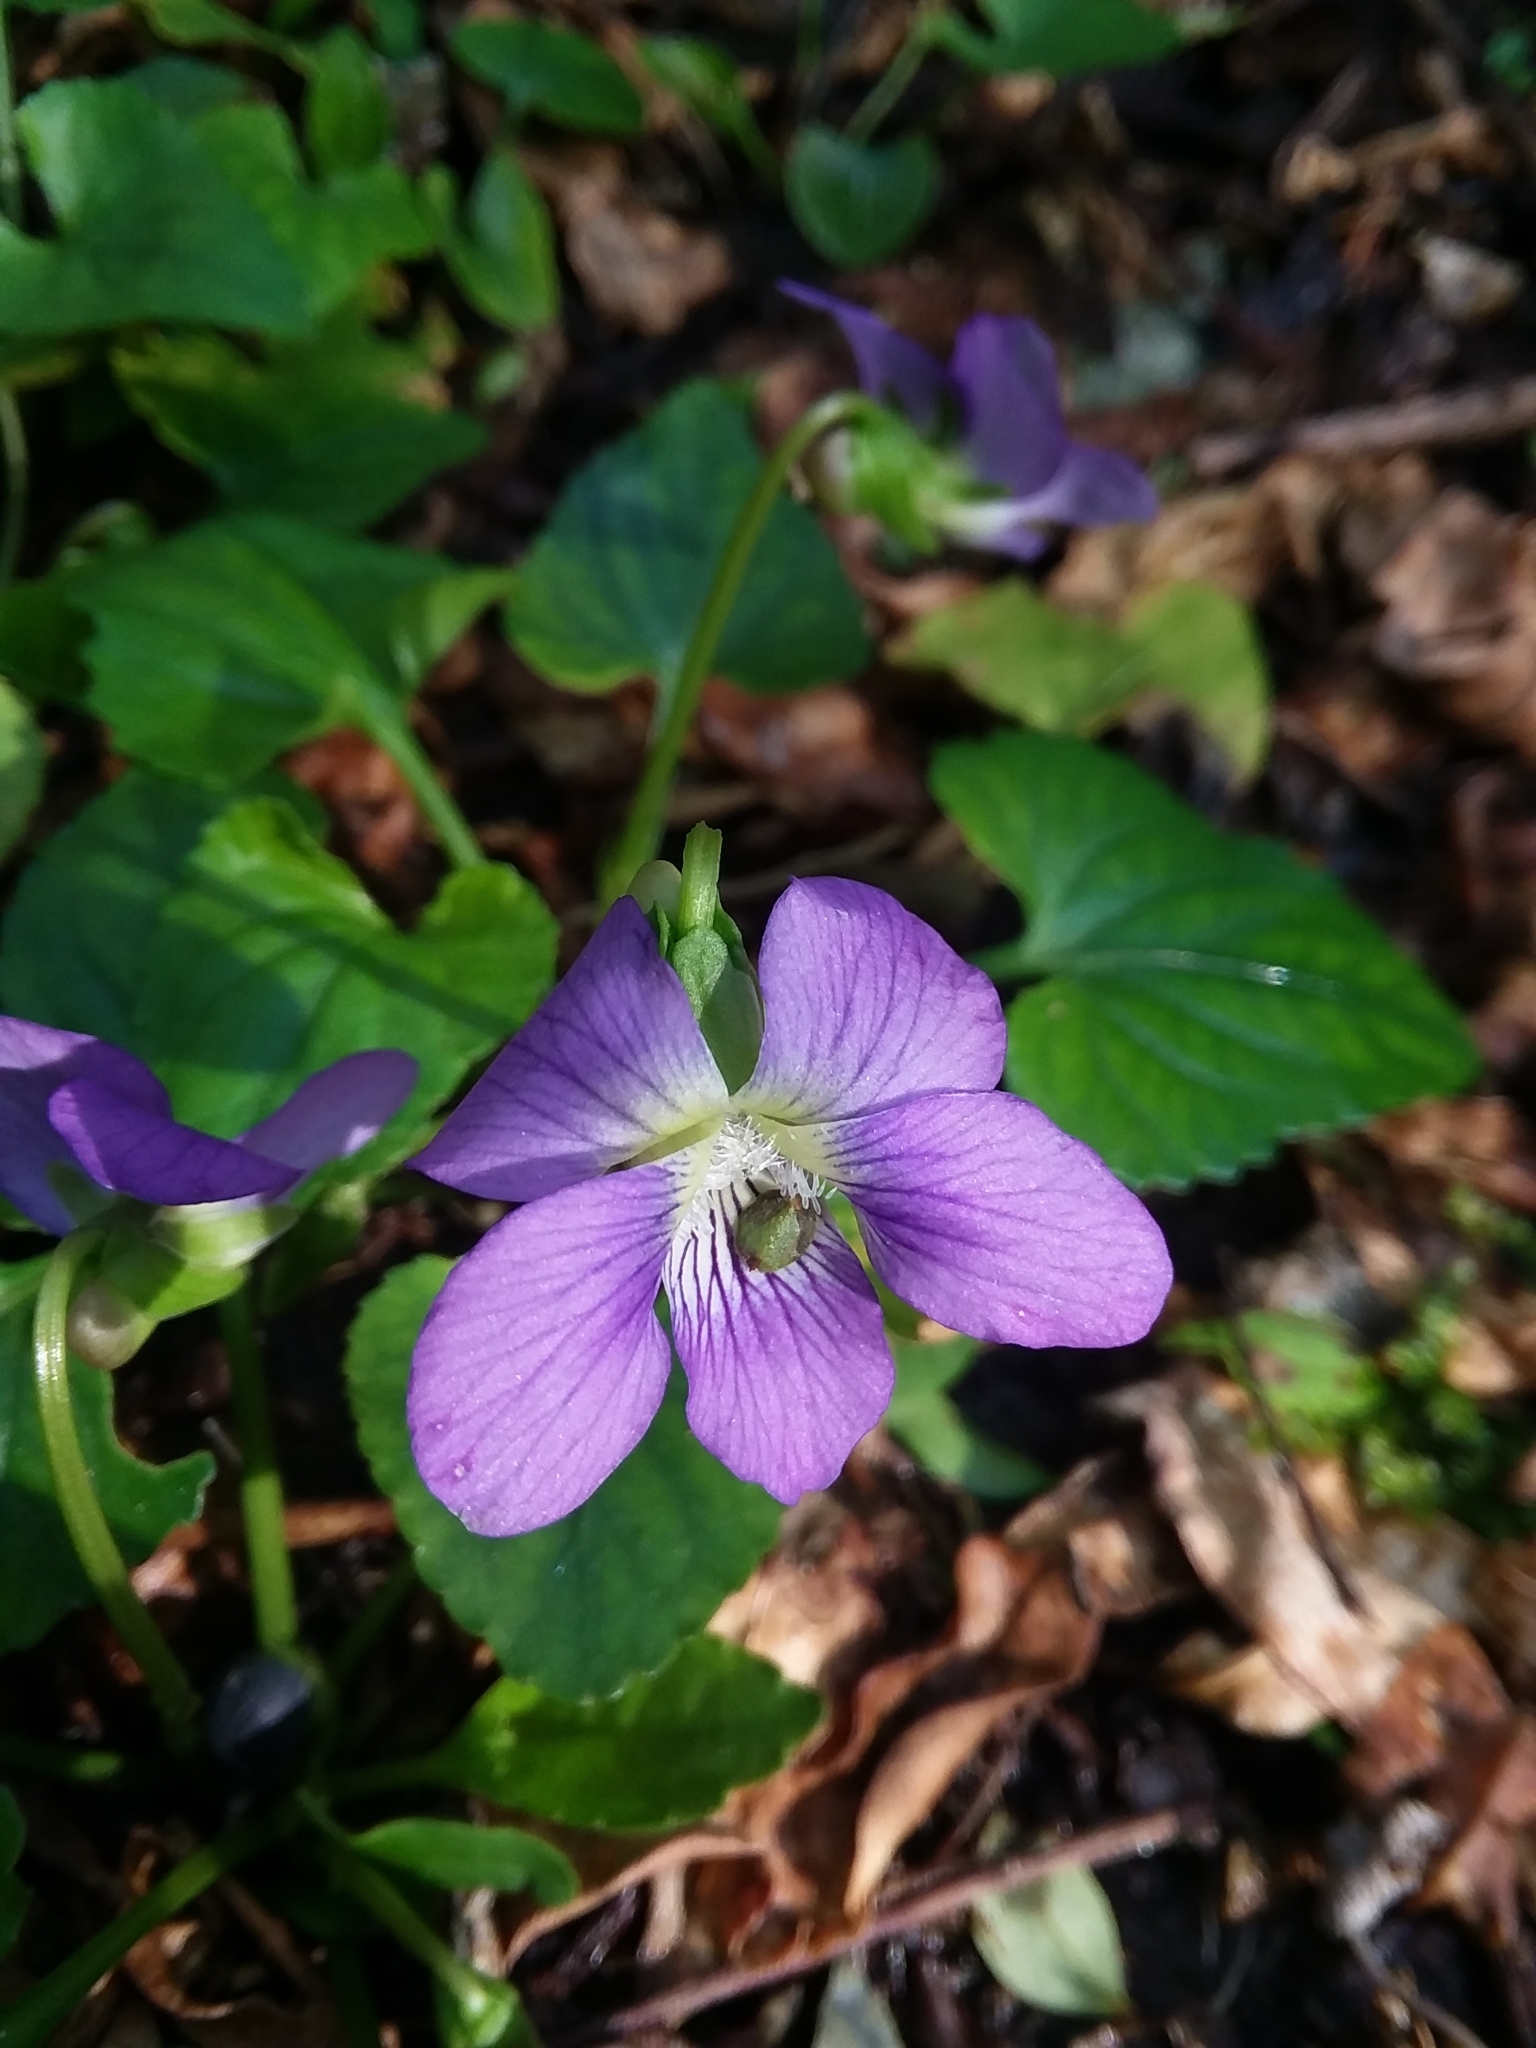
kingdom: Plantae
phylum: Tracheophyta
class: Magnoliopsida
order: Malpighiales
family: Violaceae
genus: Viola
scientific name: Viola sororia
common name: Dooryard violet
